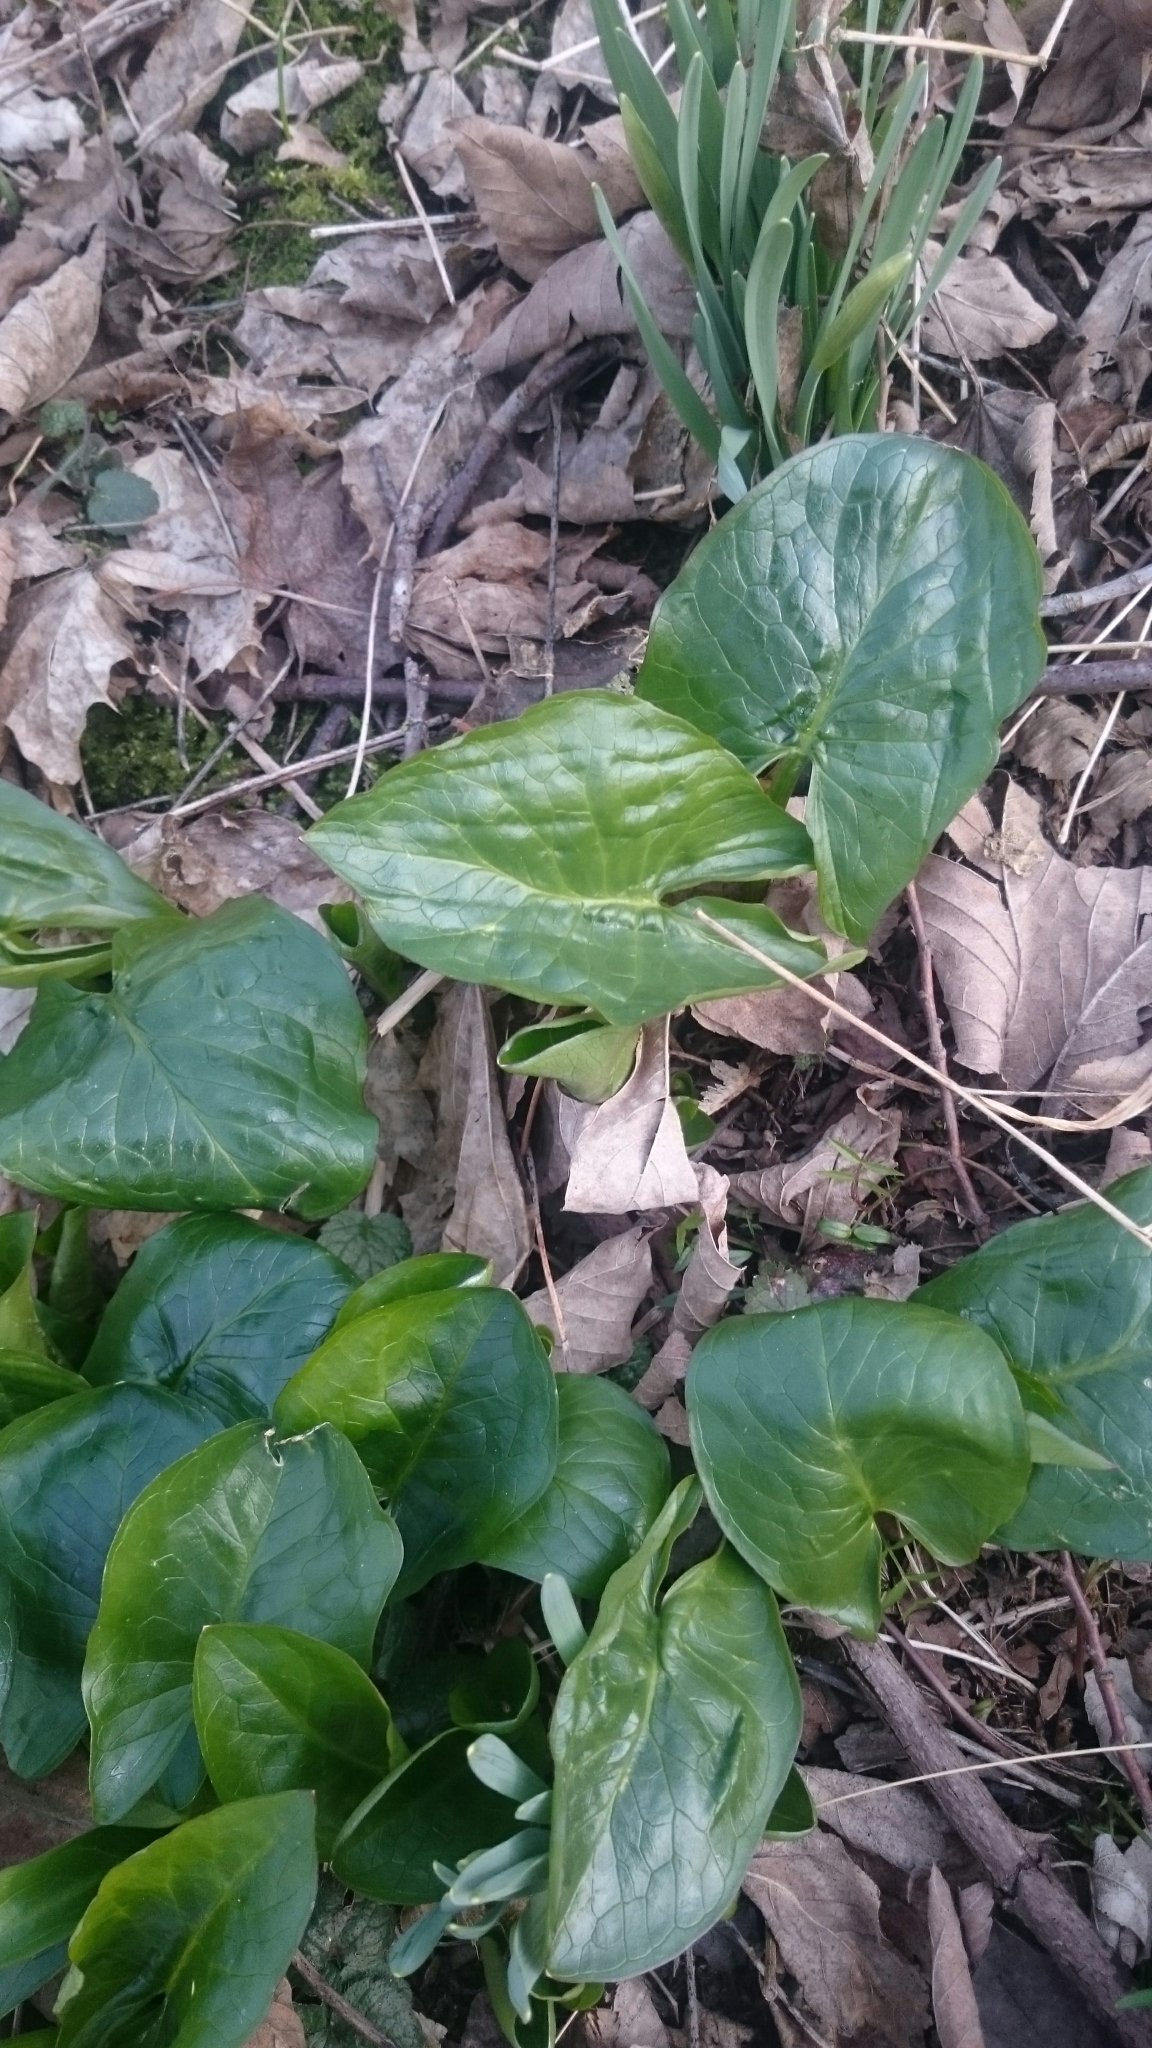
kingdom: Plantae
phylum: Tracheophyta
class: Liliopsida
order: Alismatales
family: Araceae
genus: Arum
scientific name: Arum maculatum
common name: Lords-and-ladies
